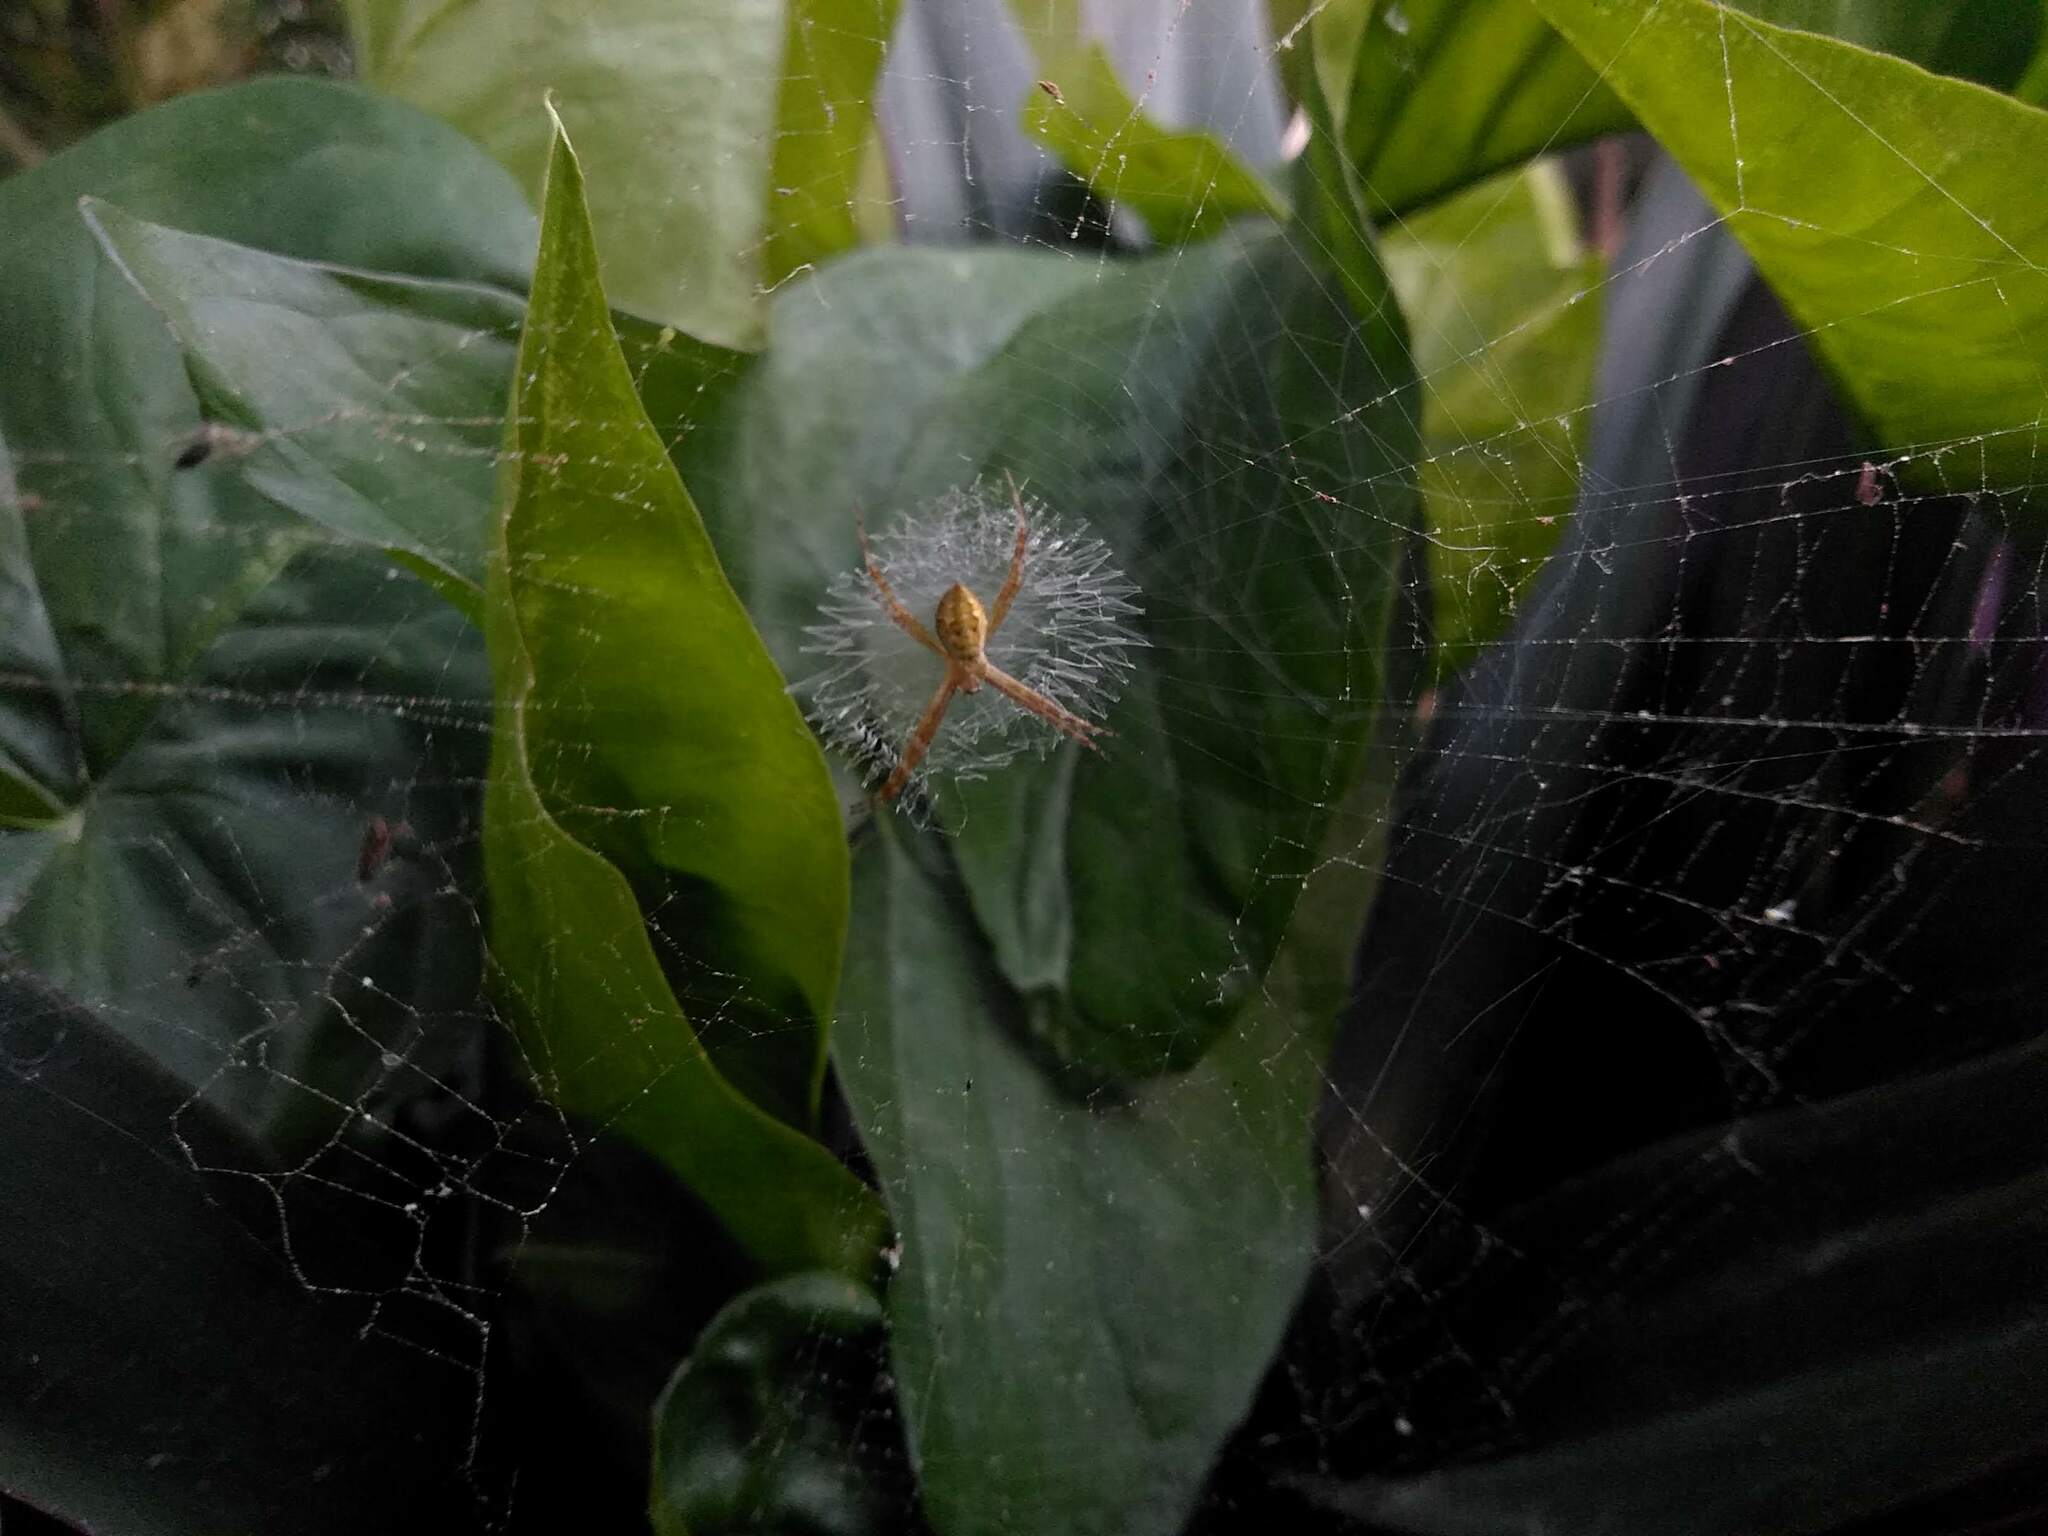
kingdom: Animalia
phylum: Arthropoda
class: Arachnida
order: Araneae
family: Araneidae
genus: Argiope
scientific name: Argiope argentata
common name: Orb weavers
